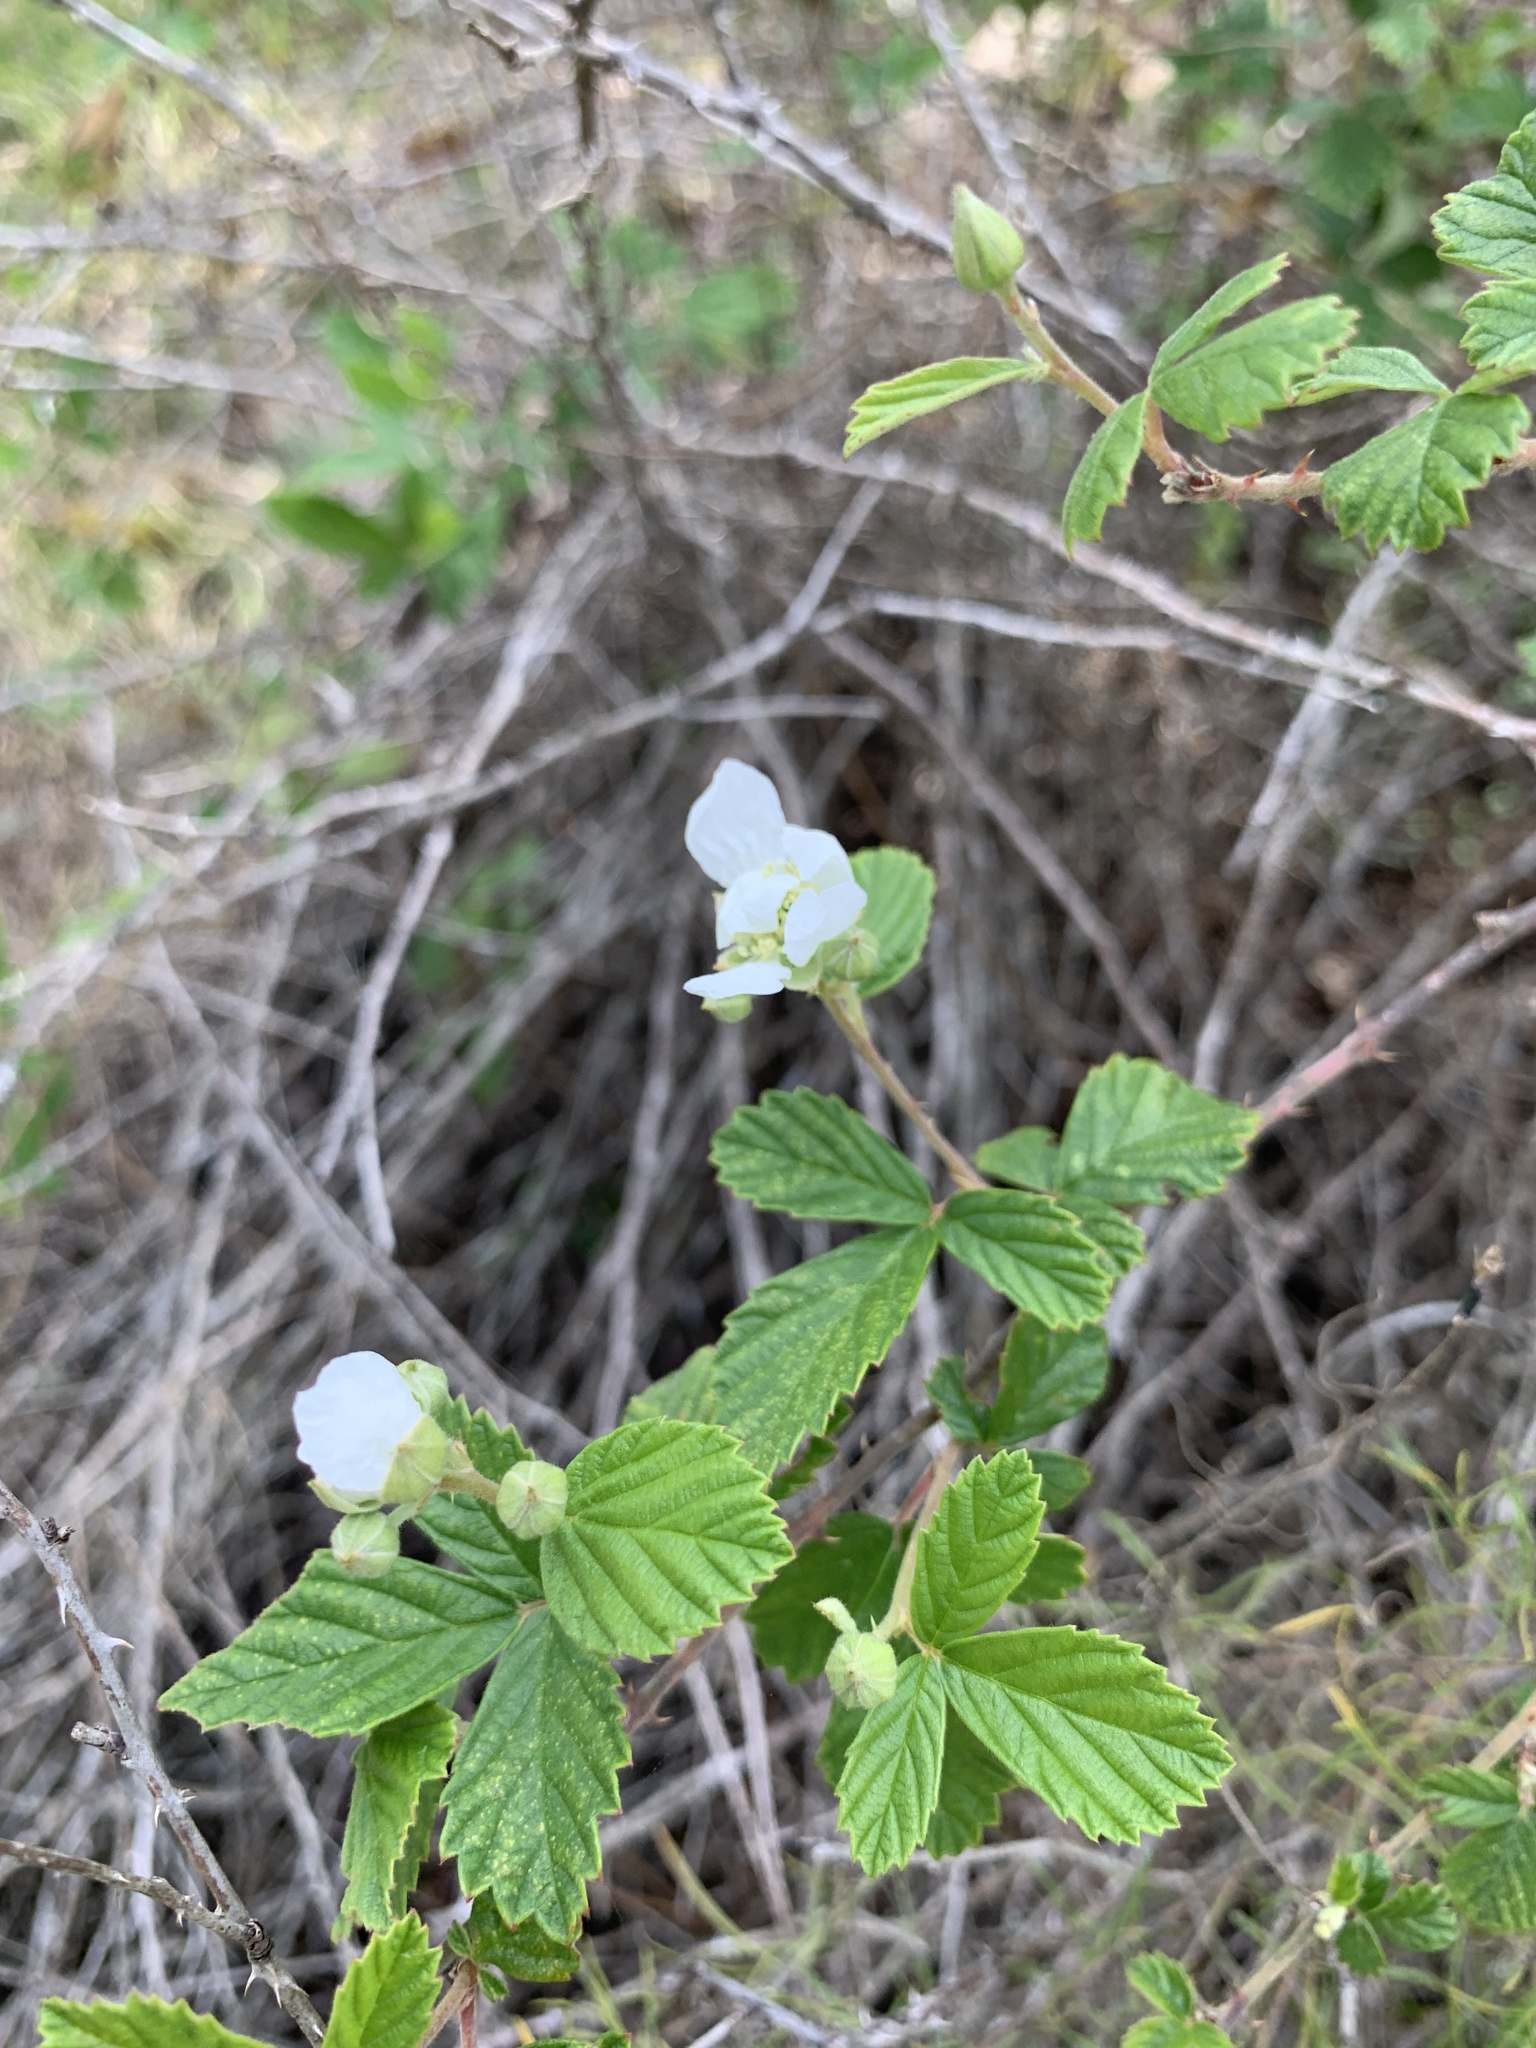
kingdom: Plantae
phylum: Tracheophyta
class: Magnoliopsida
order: Rosales
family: Rosaceae
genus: Rubus
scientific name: Rubus cuneifolius
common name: American bramble
